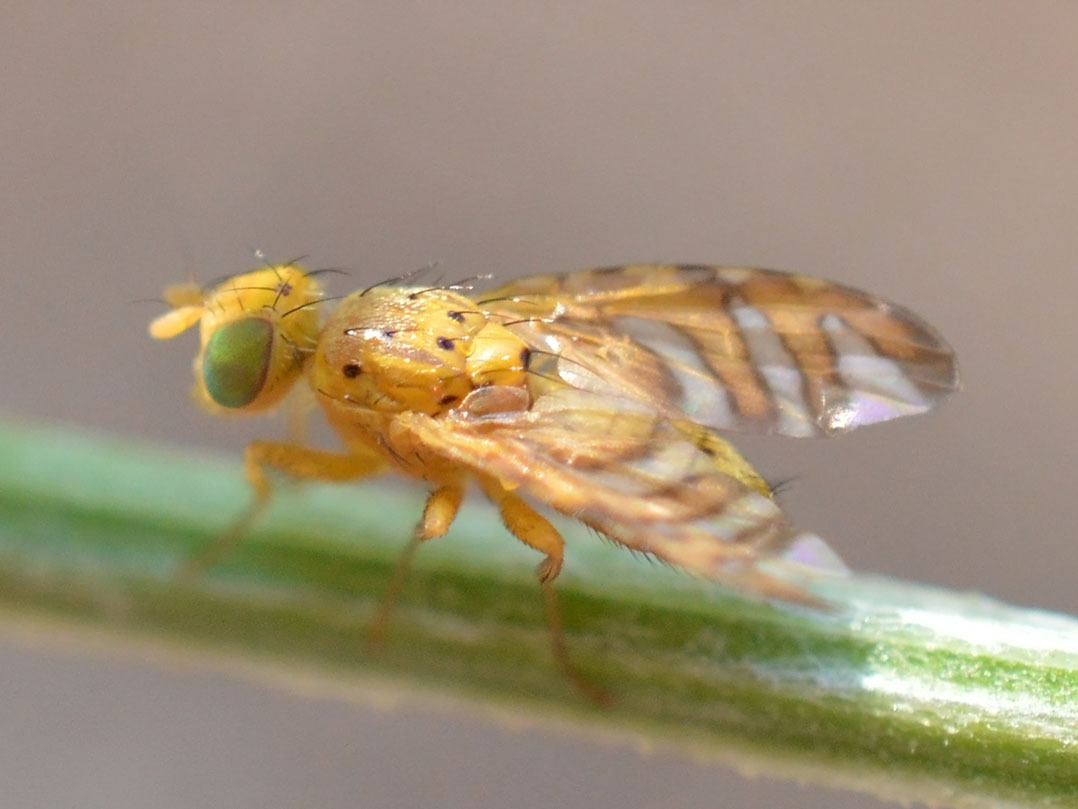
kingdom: Animalia
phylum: Arthropoda
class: Insecta
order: Diptera
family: Tephritidae
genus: Chaetorellia
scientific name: Chaetorellia conjuncta
